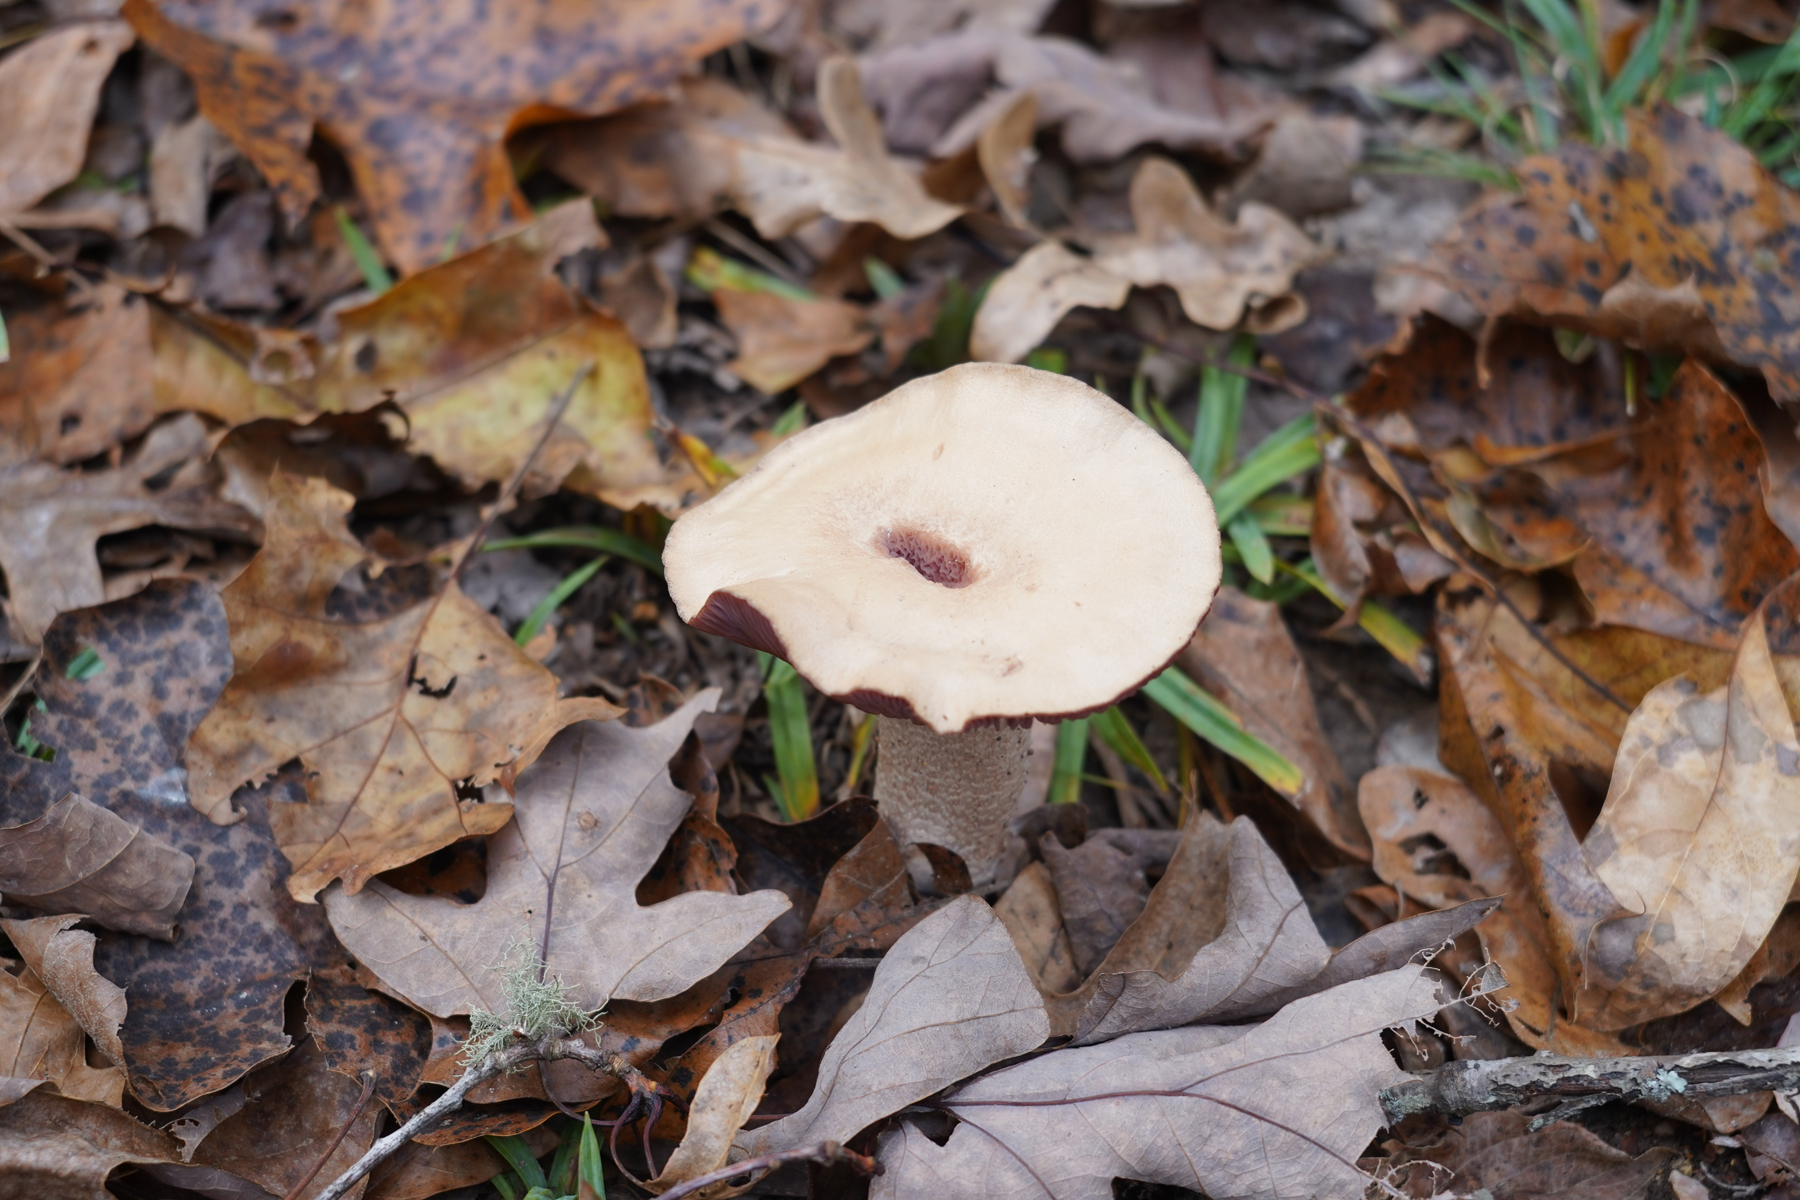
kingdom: Fungi
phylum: Basidiomycota
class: Agaricomycetes
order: Agaricales
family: Hydnangiaceae
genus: Laccaria
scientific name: Laccaria ochropurpurea
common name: Purple laccaria
